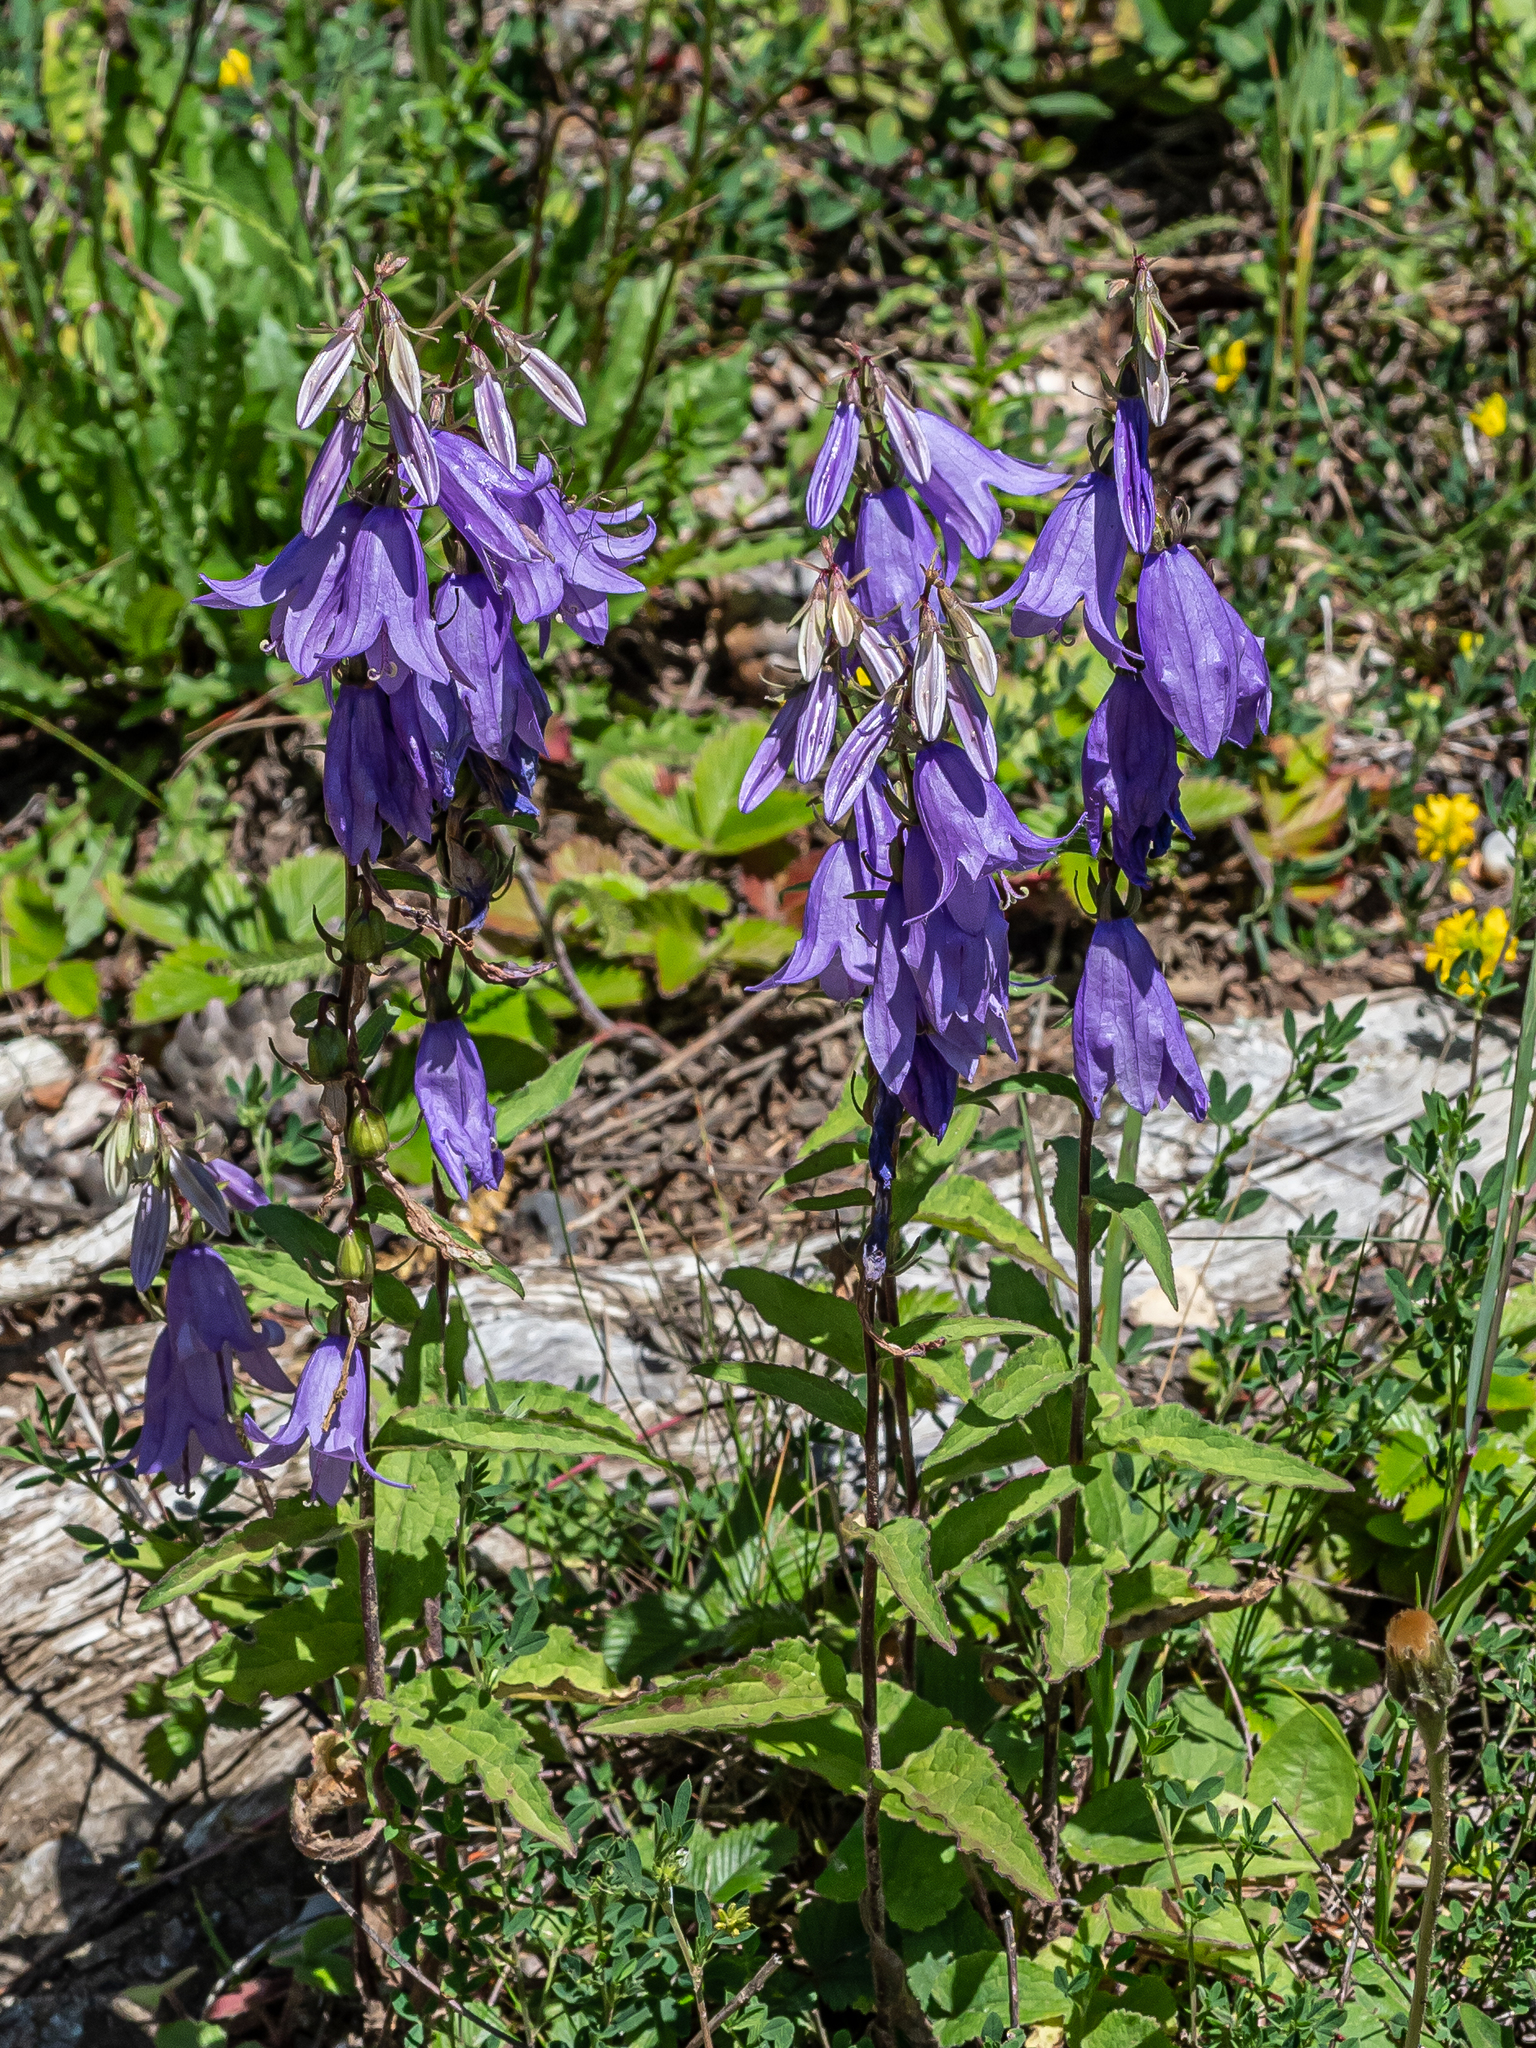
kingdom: Plantae
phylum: Tracheophyta
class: Magnoliopsida
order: Asterales
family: Campanulaceae
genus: Campanula
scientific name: Campanula rapunculoides
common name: Creeping bellflower
